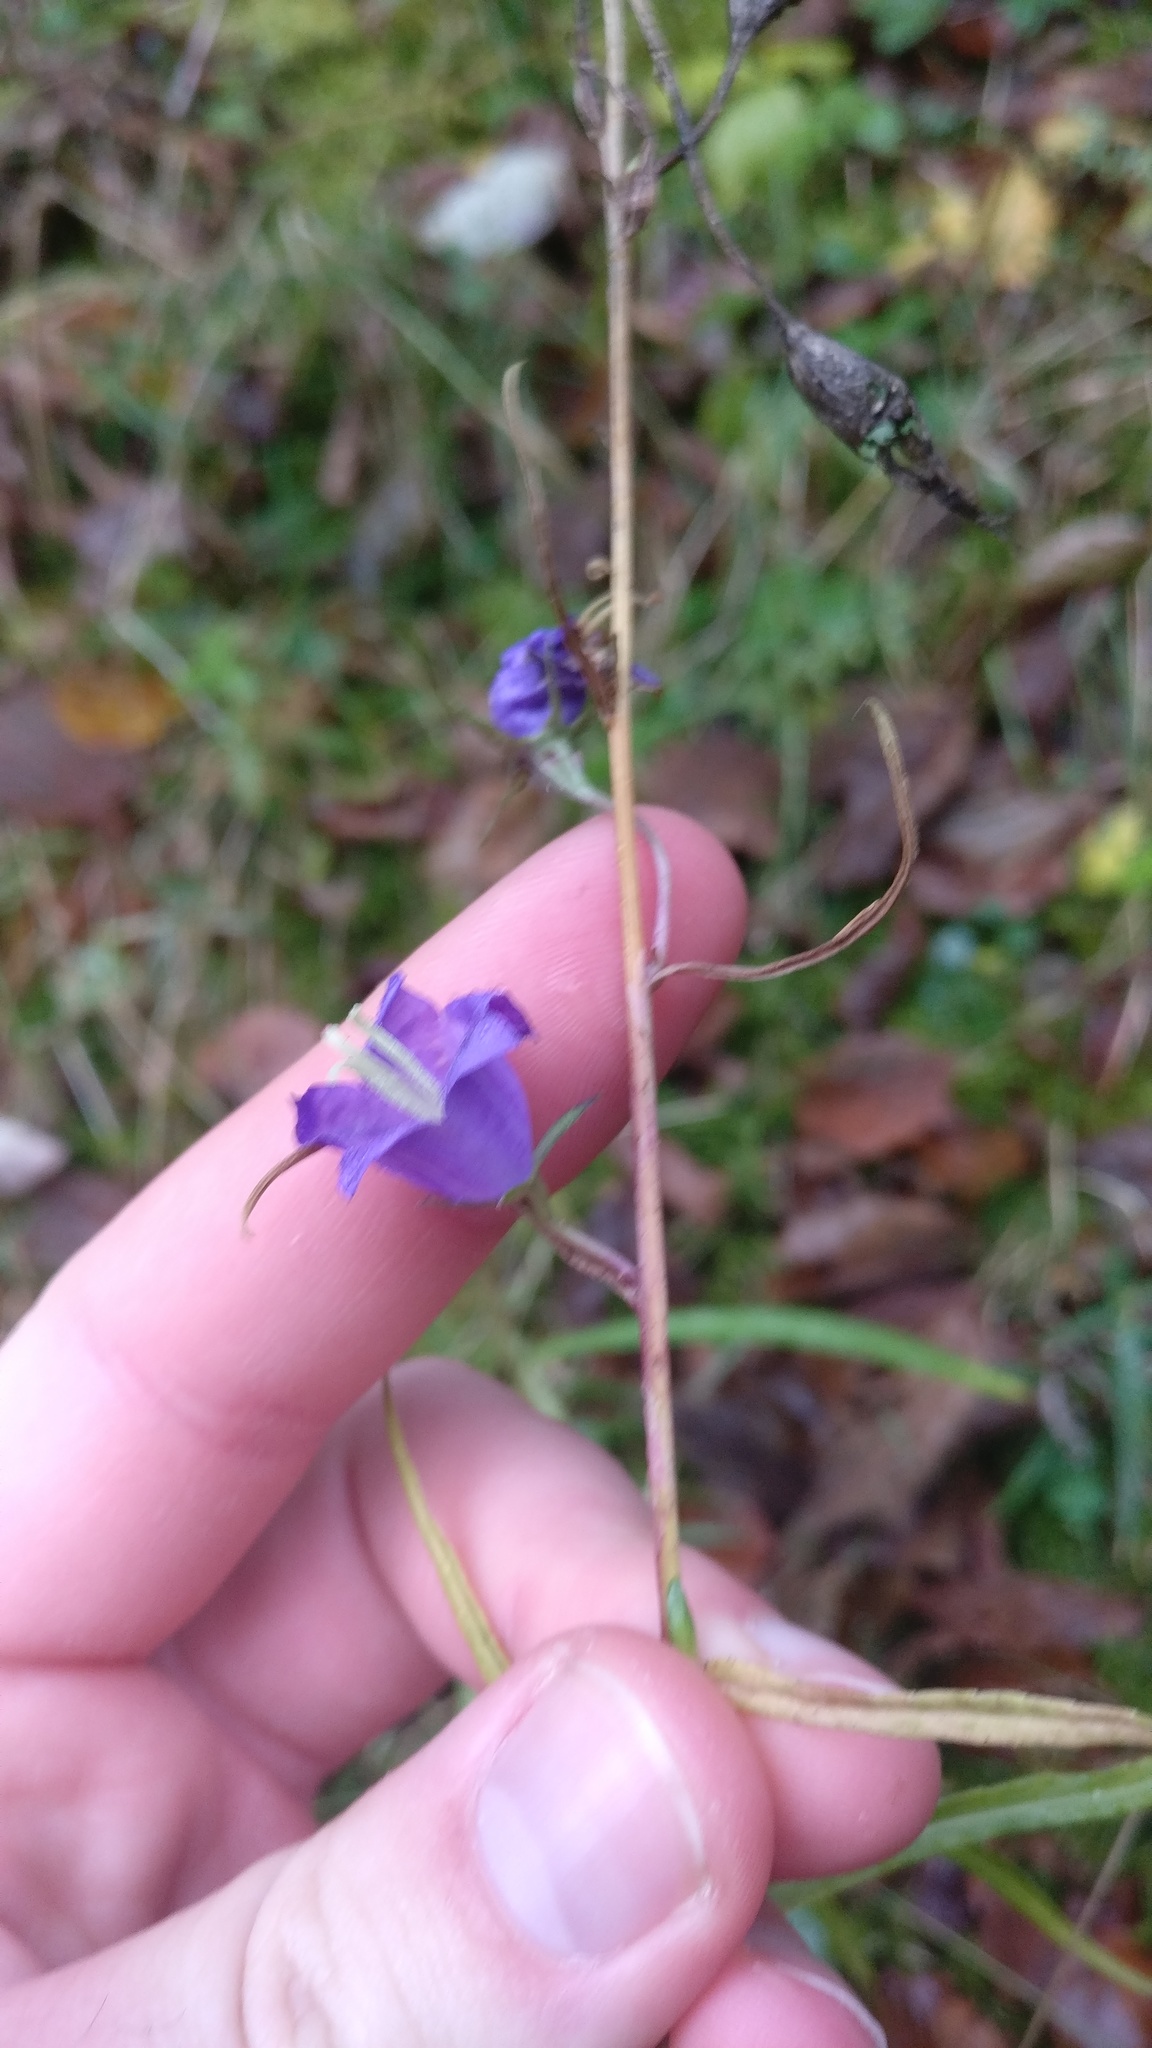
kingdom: Plantae
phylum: Tracheophyta
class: Magnoliopsida
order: Asterales
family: Campanulaceae
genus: Campanula
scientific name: Campanula persicifolia
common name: Peach-leaved bellflower
